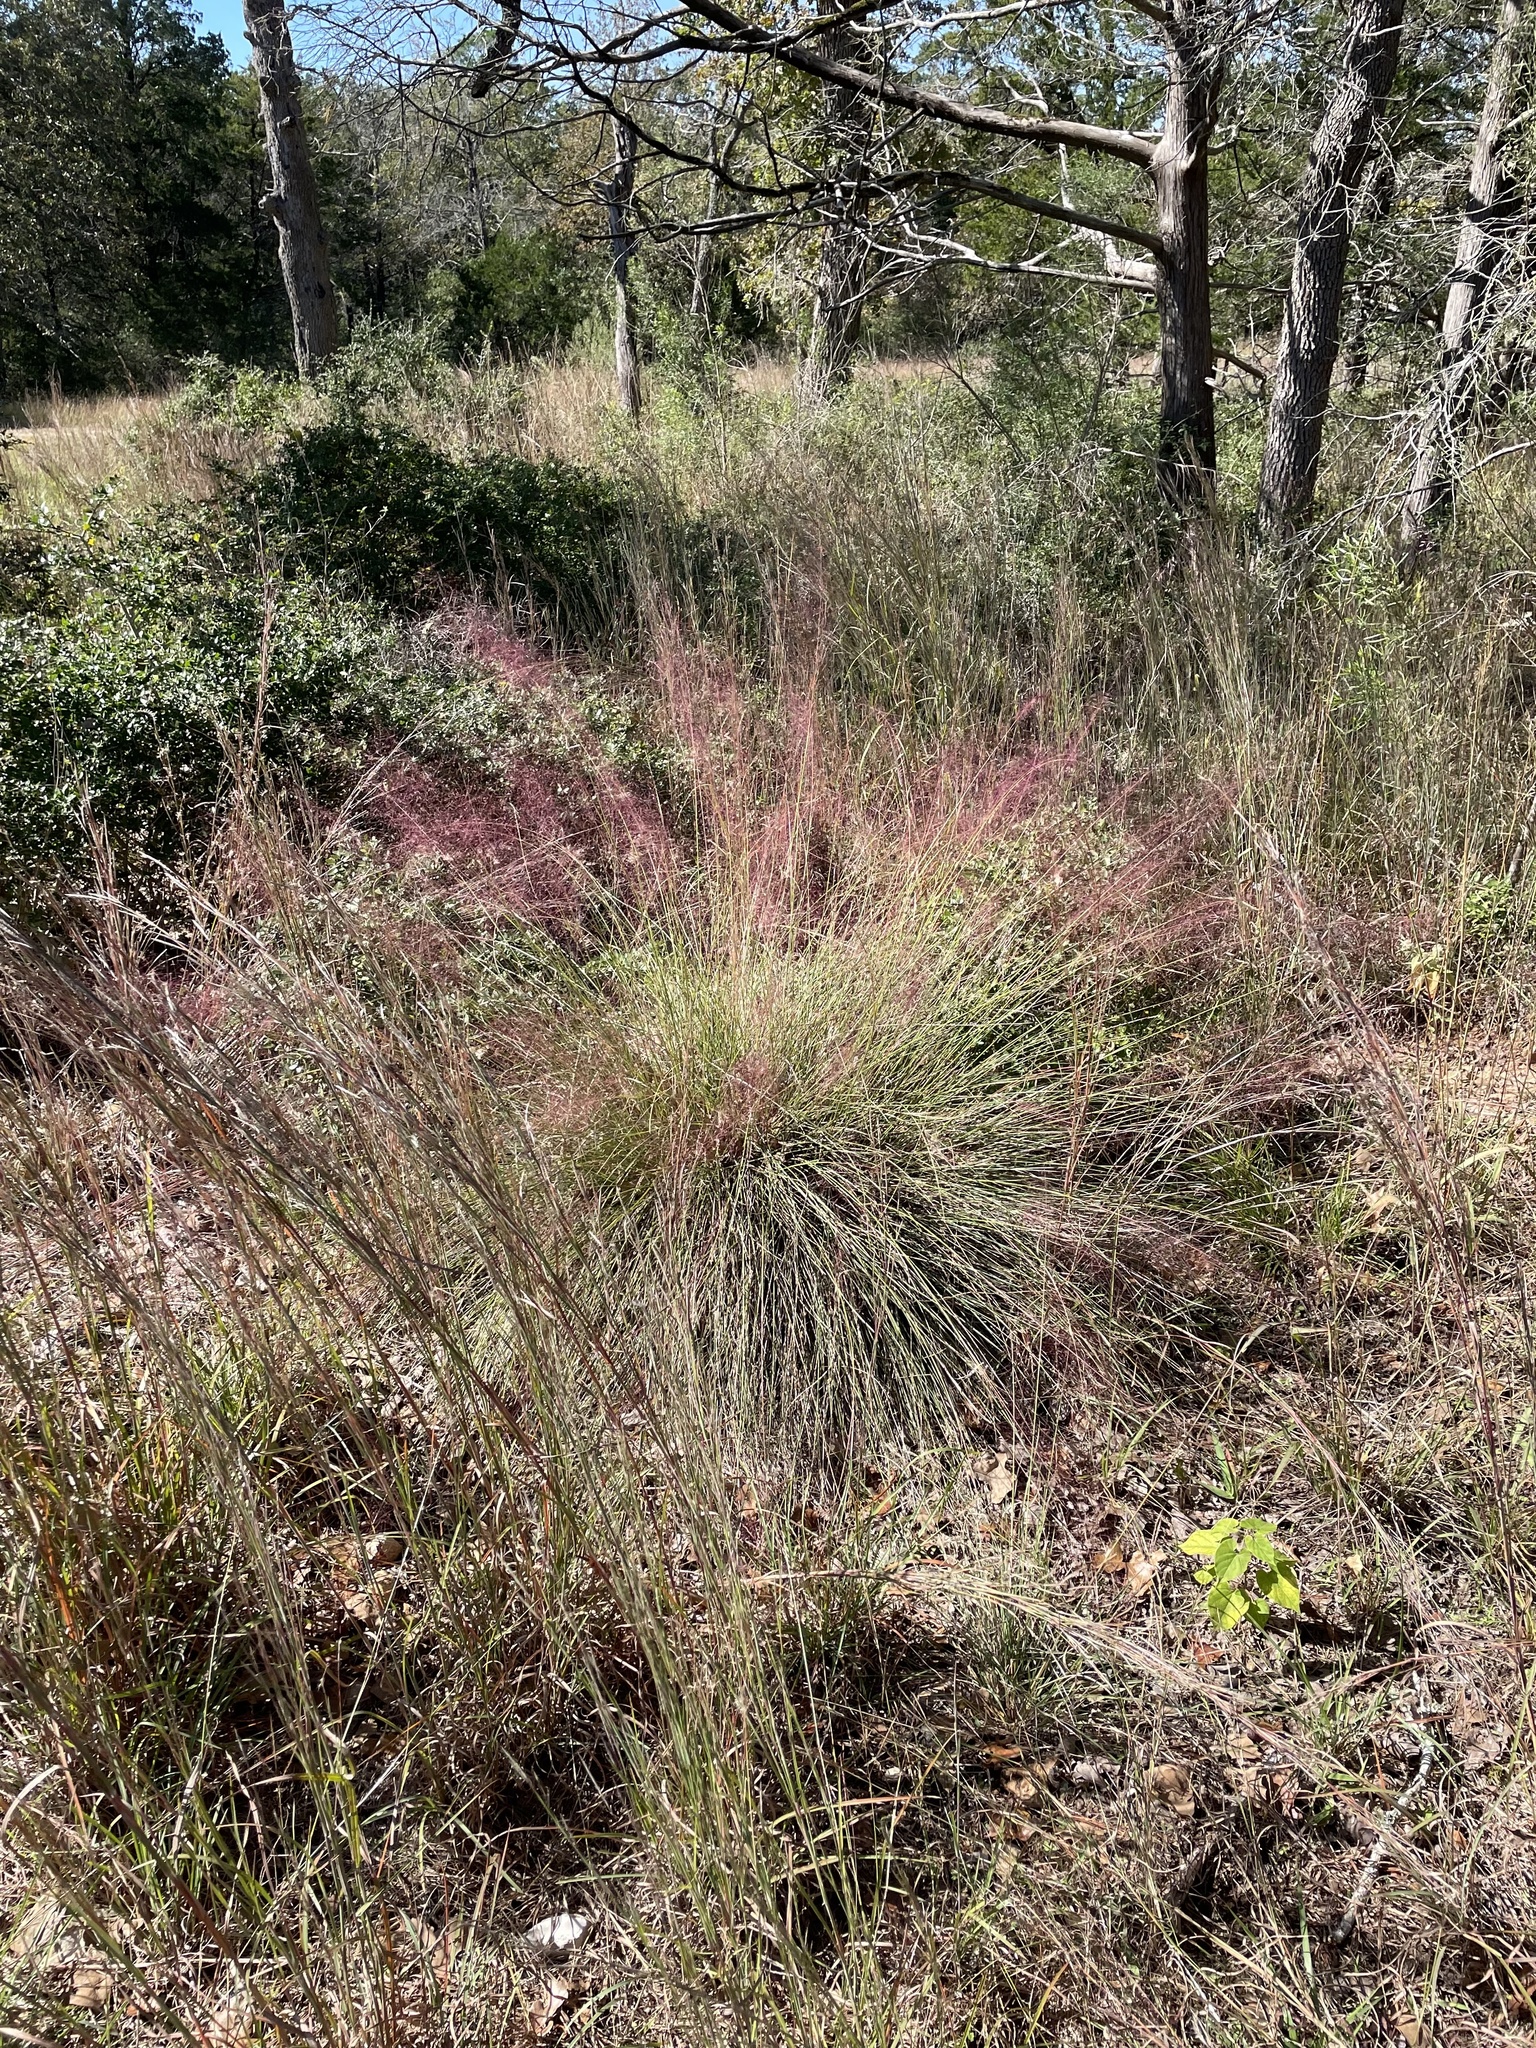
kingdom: Plantae
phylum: Tracheophyta
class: Liliopsida
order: Poales
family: Poaceae
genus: Muhlenbergia
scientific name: Muhlenbergia capillaris
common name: Purple grass
